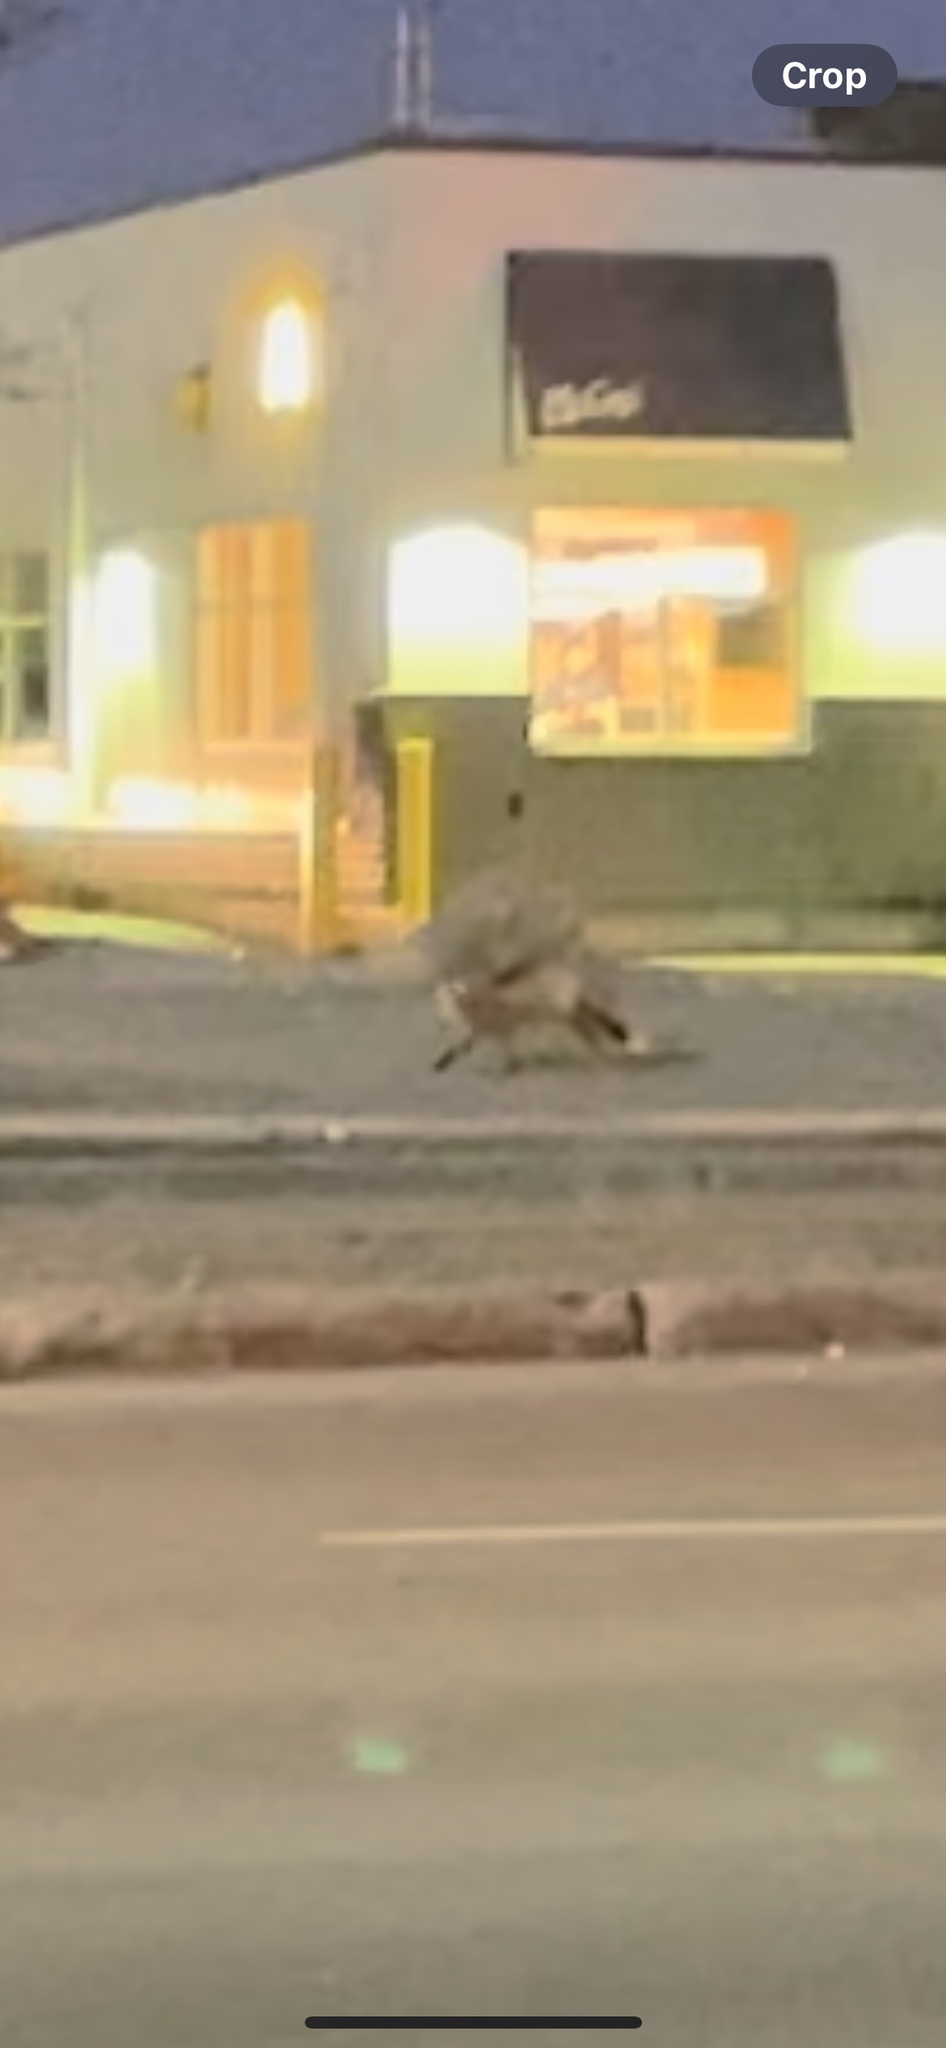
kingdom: Animalia
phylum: Chordata
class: Mammalia
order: Carnivora
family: Canidae
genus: Vulpes
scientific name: Vulpes vulpes
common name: Red fox
